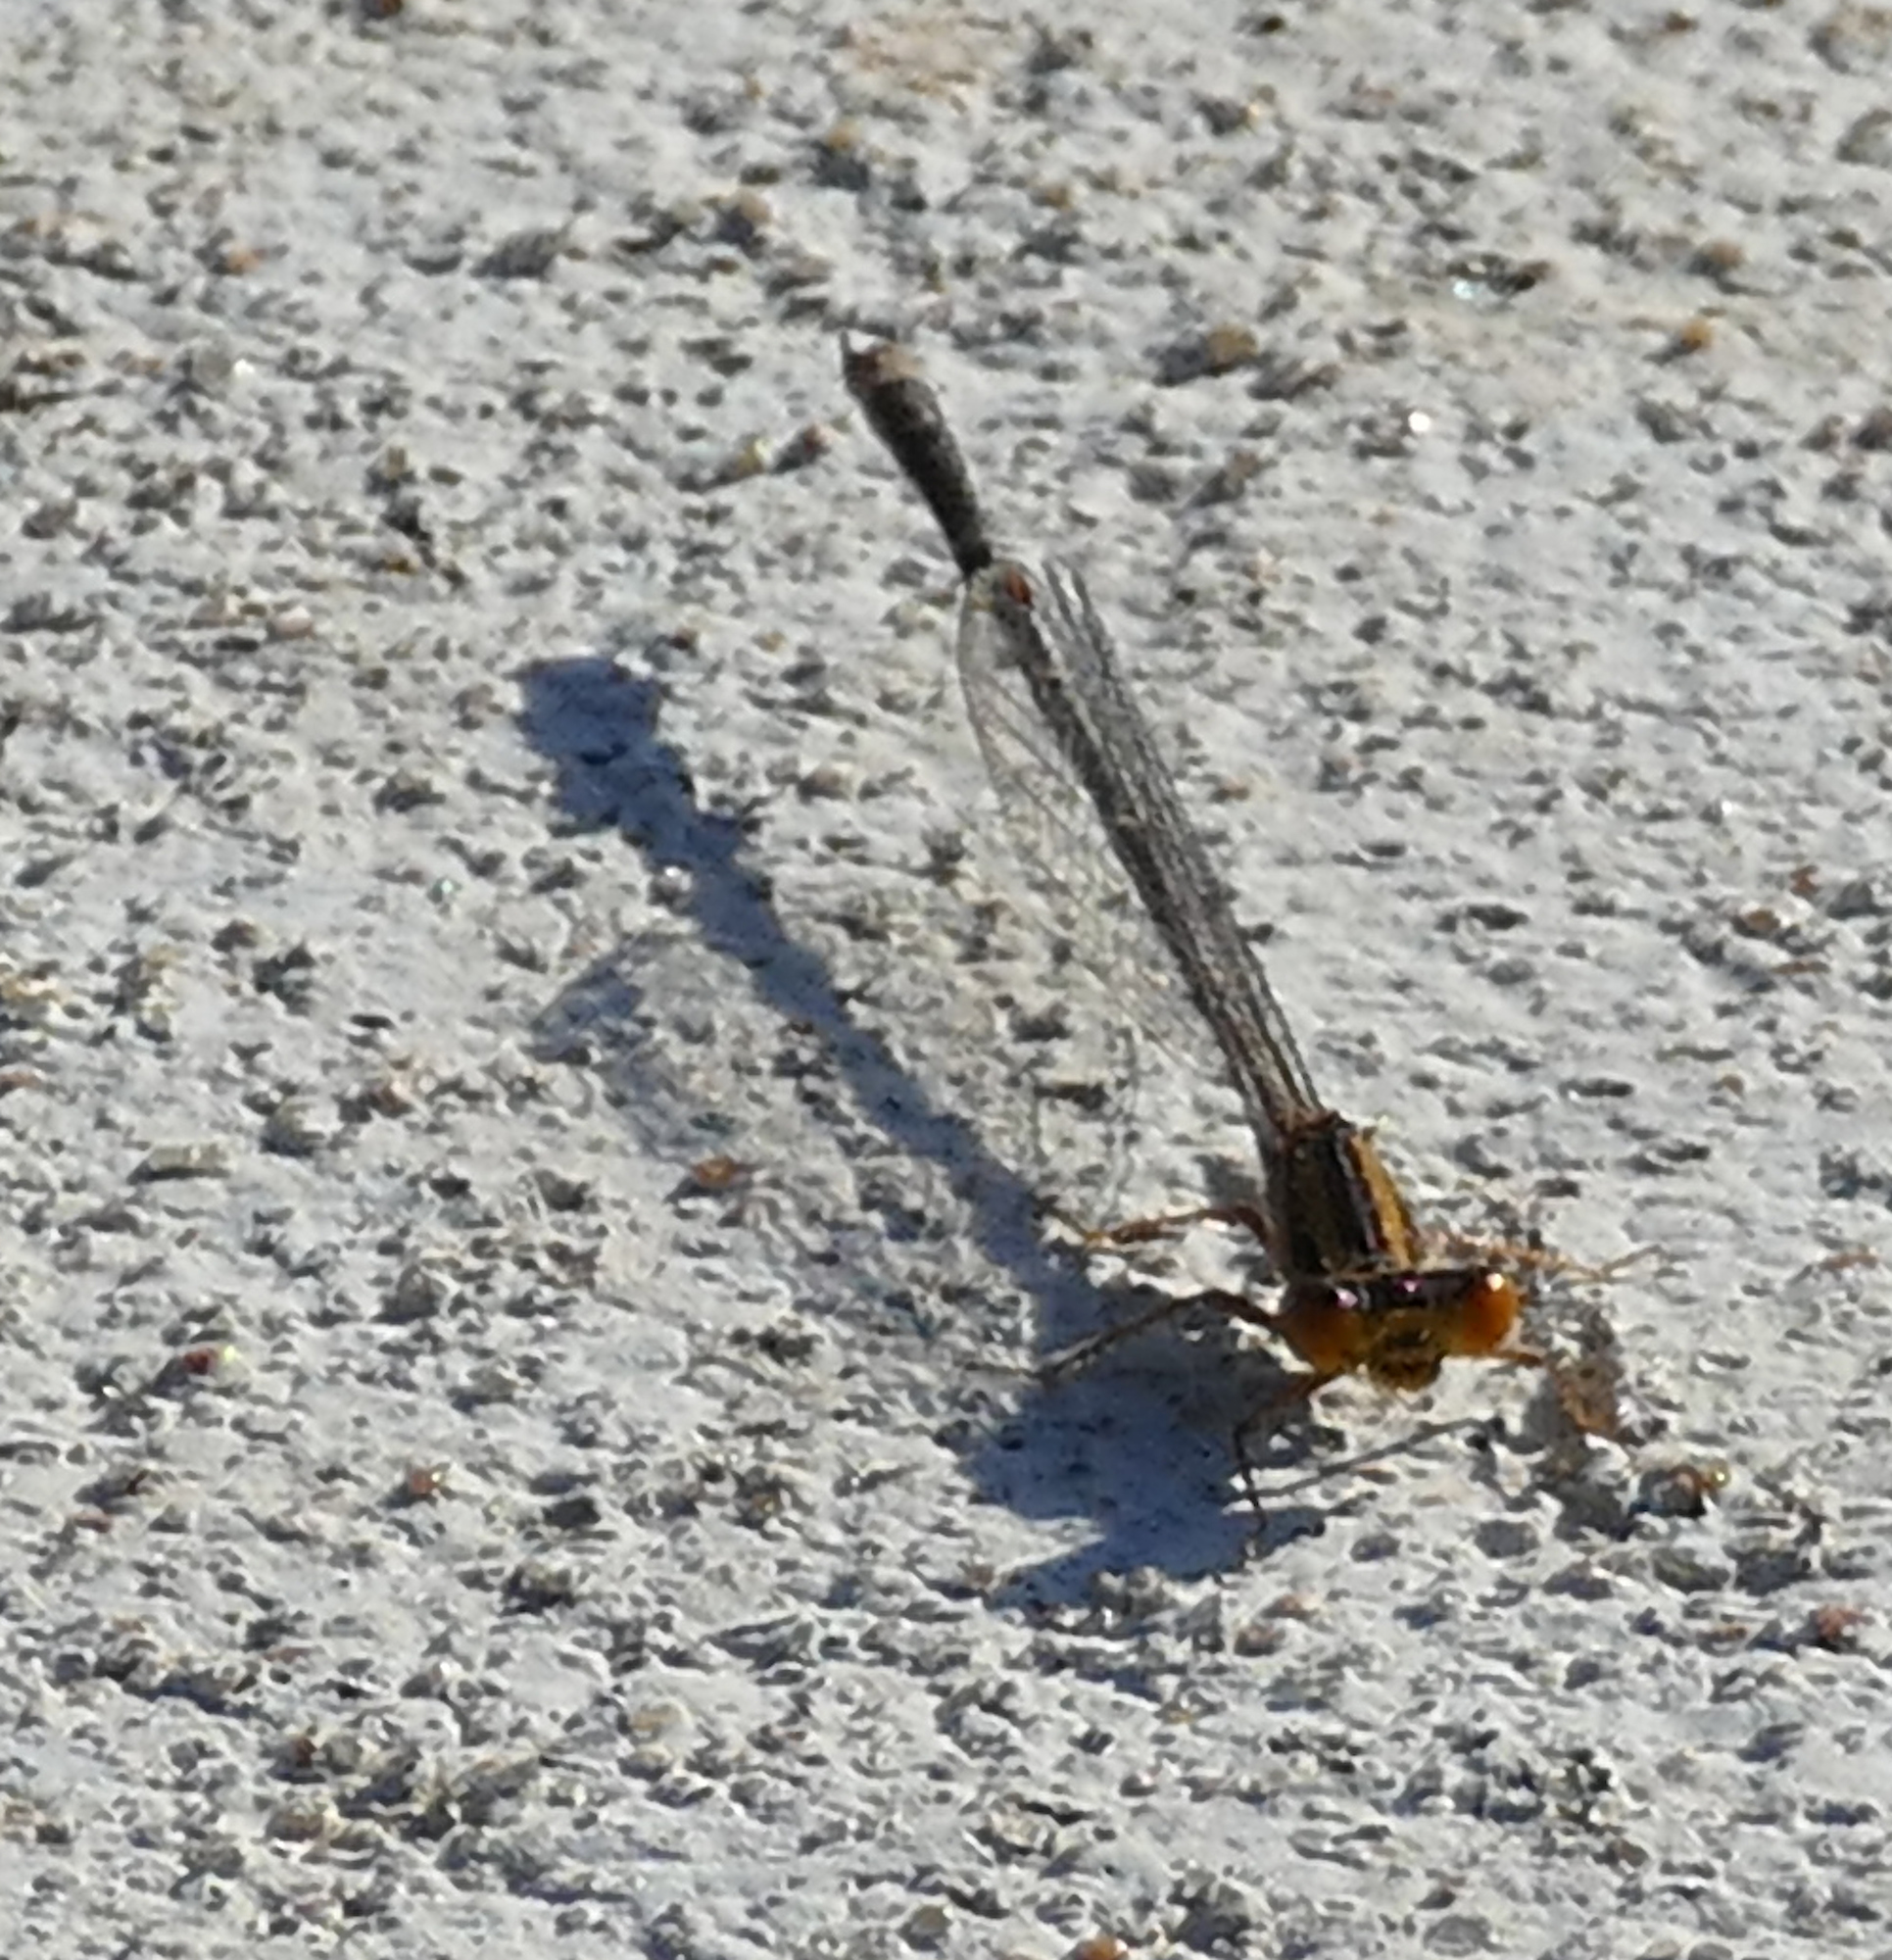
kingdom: Animalia
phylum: Arthropoda
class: Insecta
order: Odonata
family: Coenagrionidae
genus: Enallagma
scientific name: Enallagma signatum
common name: Orange bluet
